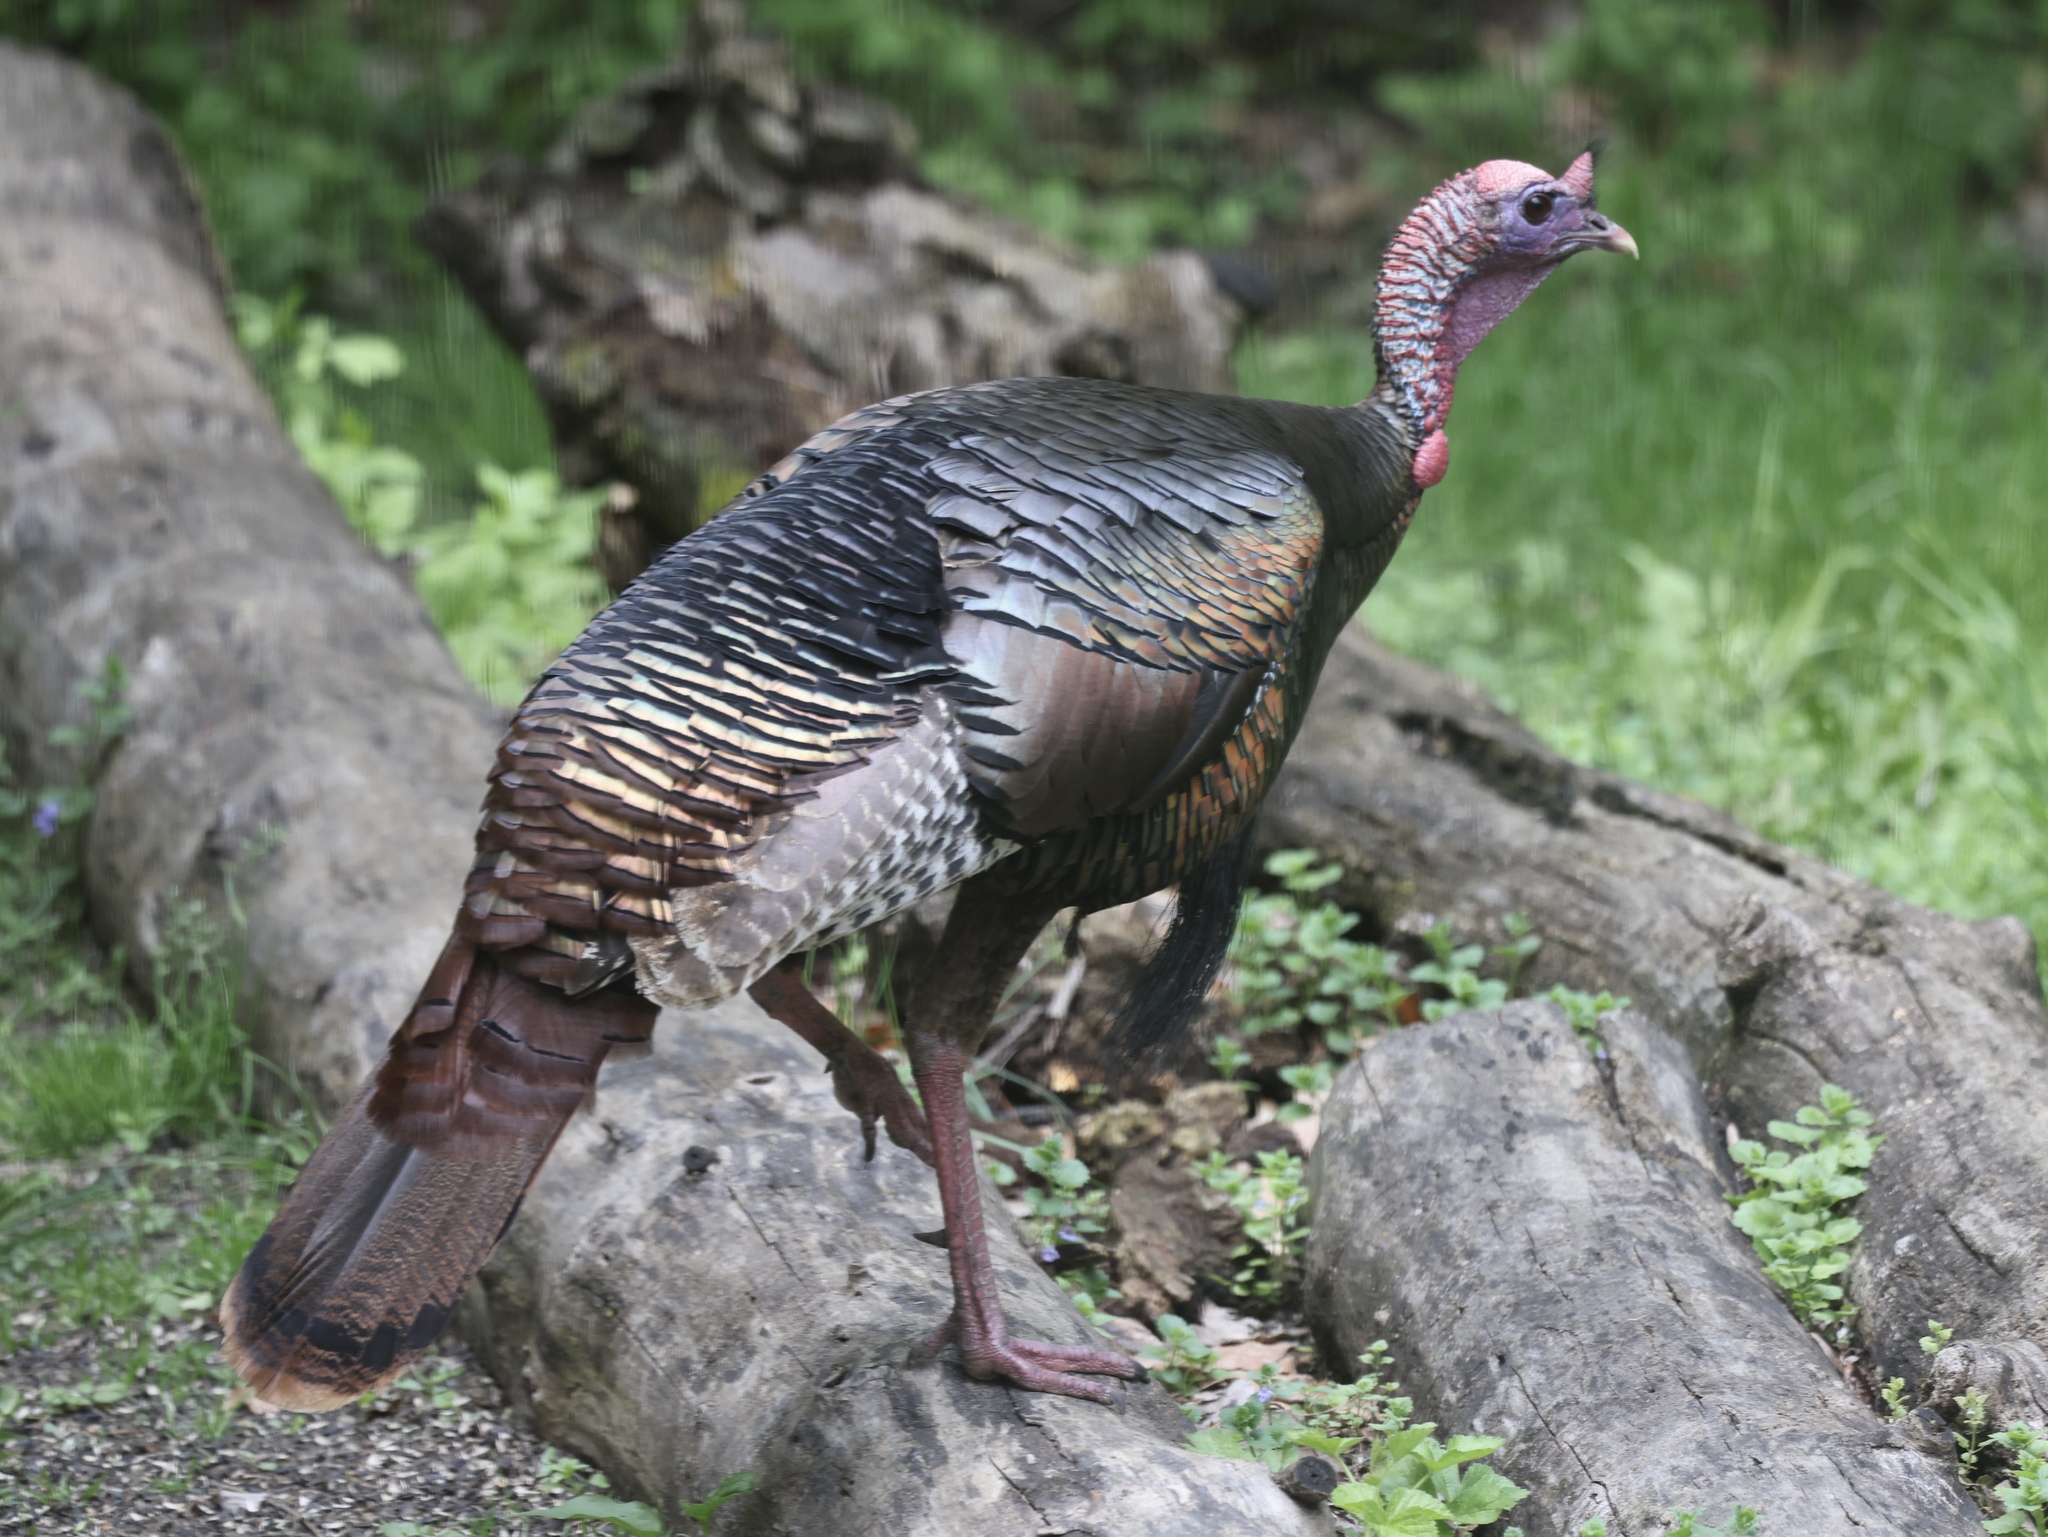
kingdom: Animalia
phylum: Chordata
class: Aves
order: Galliformes
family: Phasianidae
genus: Meleagris
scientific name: Meleagris gallopavo
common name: Wild turkey
